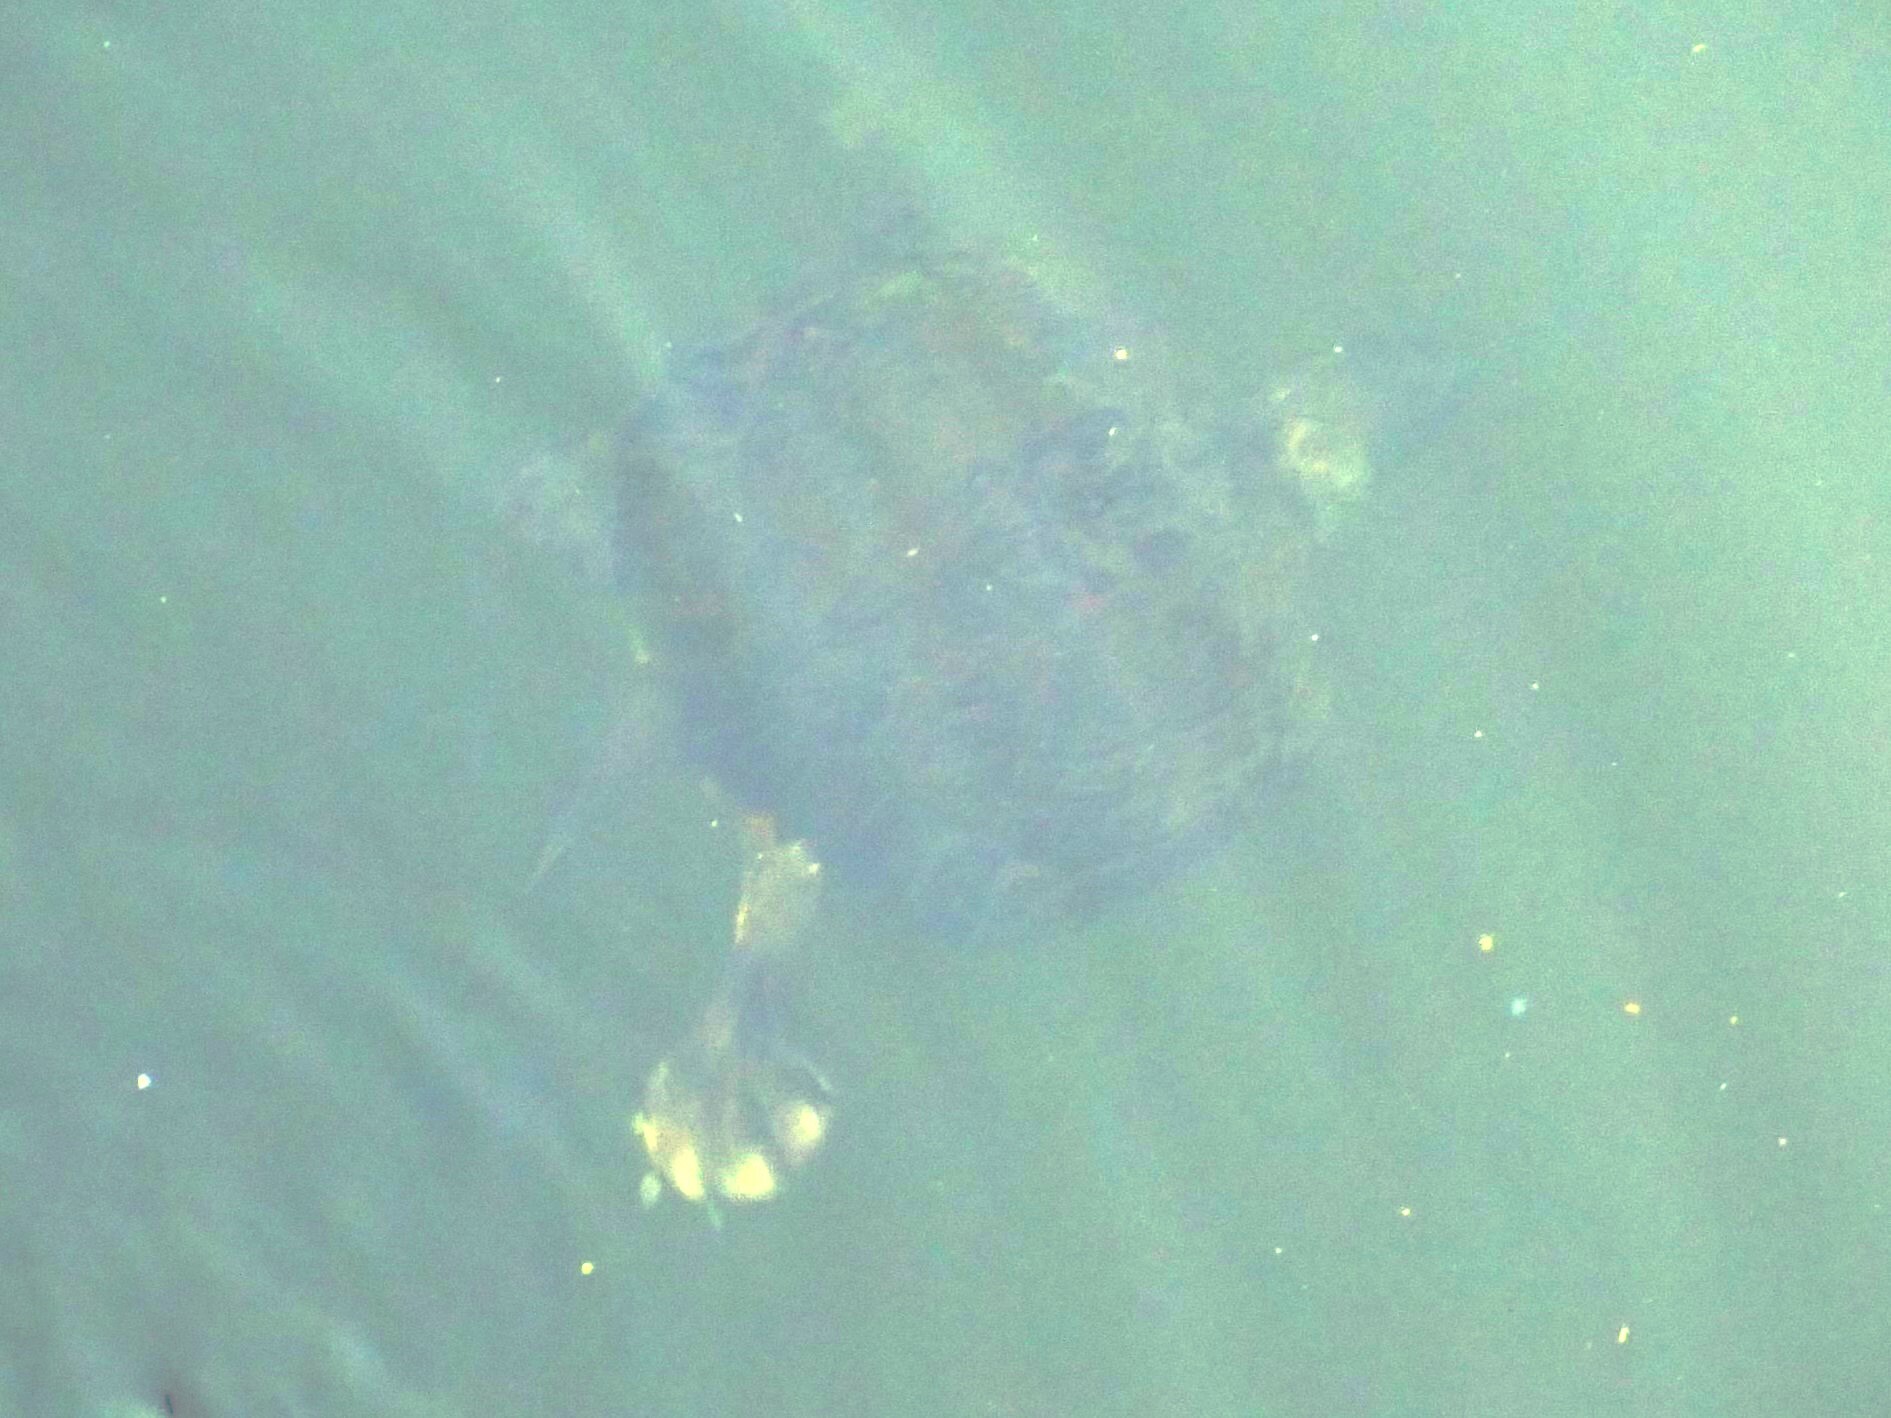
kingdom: Animalia
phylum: Chordata
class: Testudines
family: Emydidae
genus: Trachemys
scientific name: Trachemys scripta
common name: Slider
